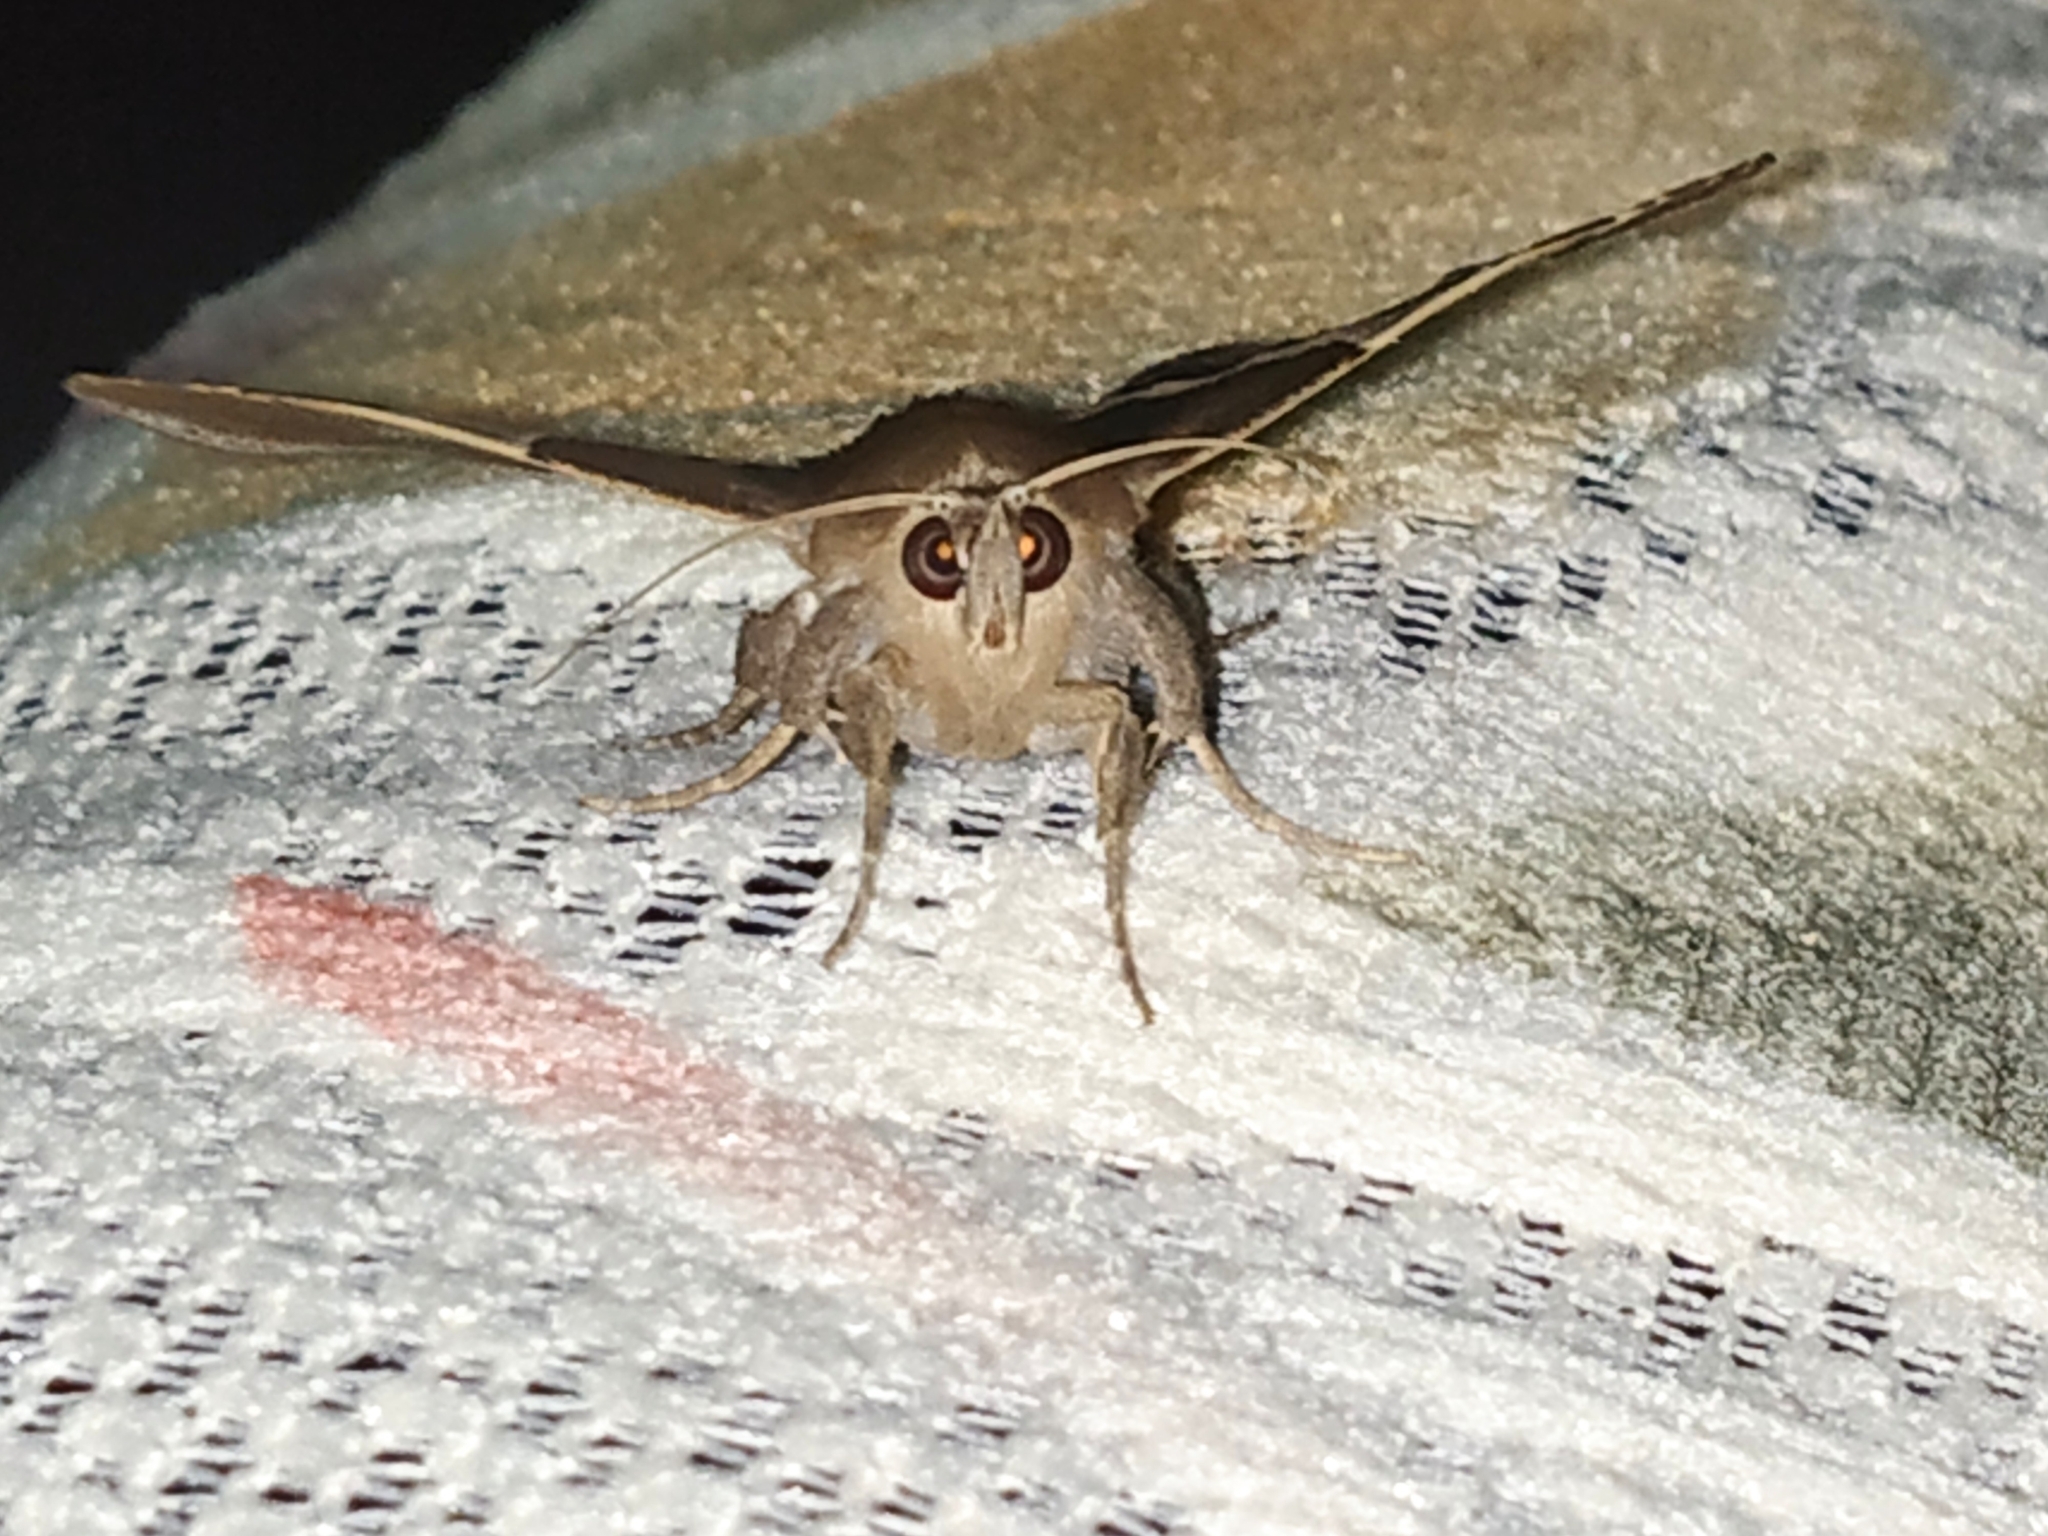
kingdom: Animalia
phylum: Arthropoda
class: Insecta
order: Lepidoptera
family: Erebidae
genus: Dysgonia
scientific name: Dysgonia torrida
